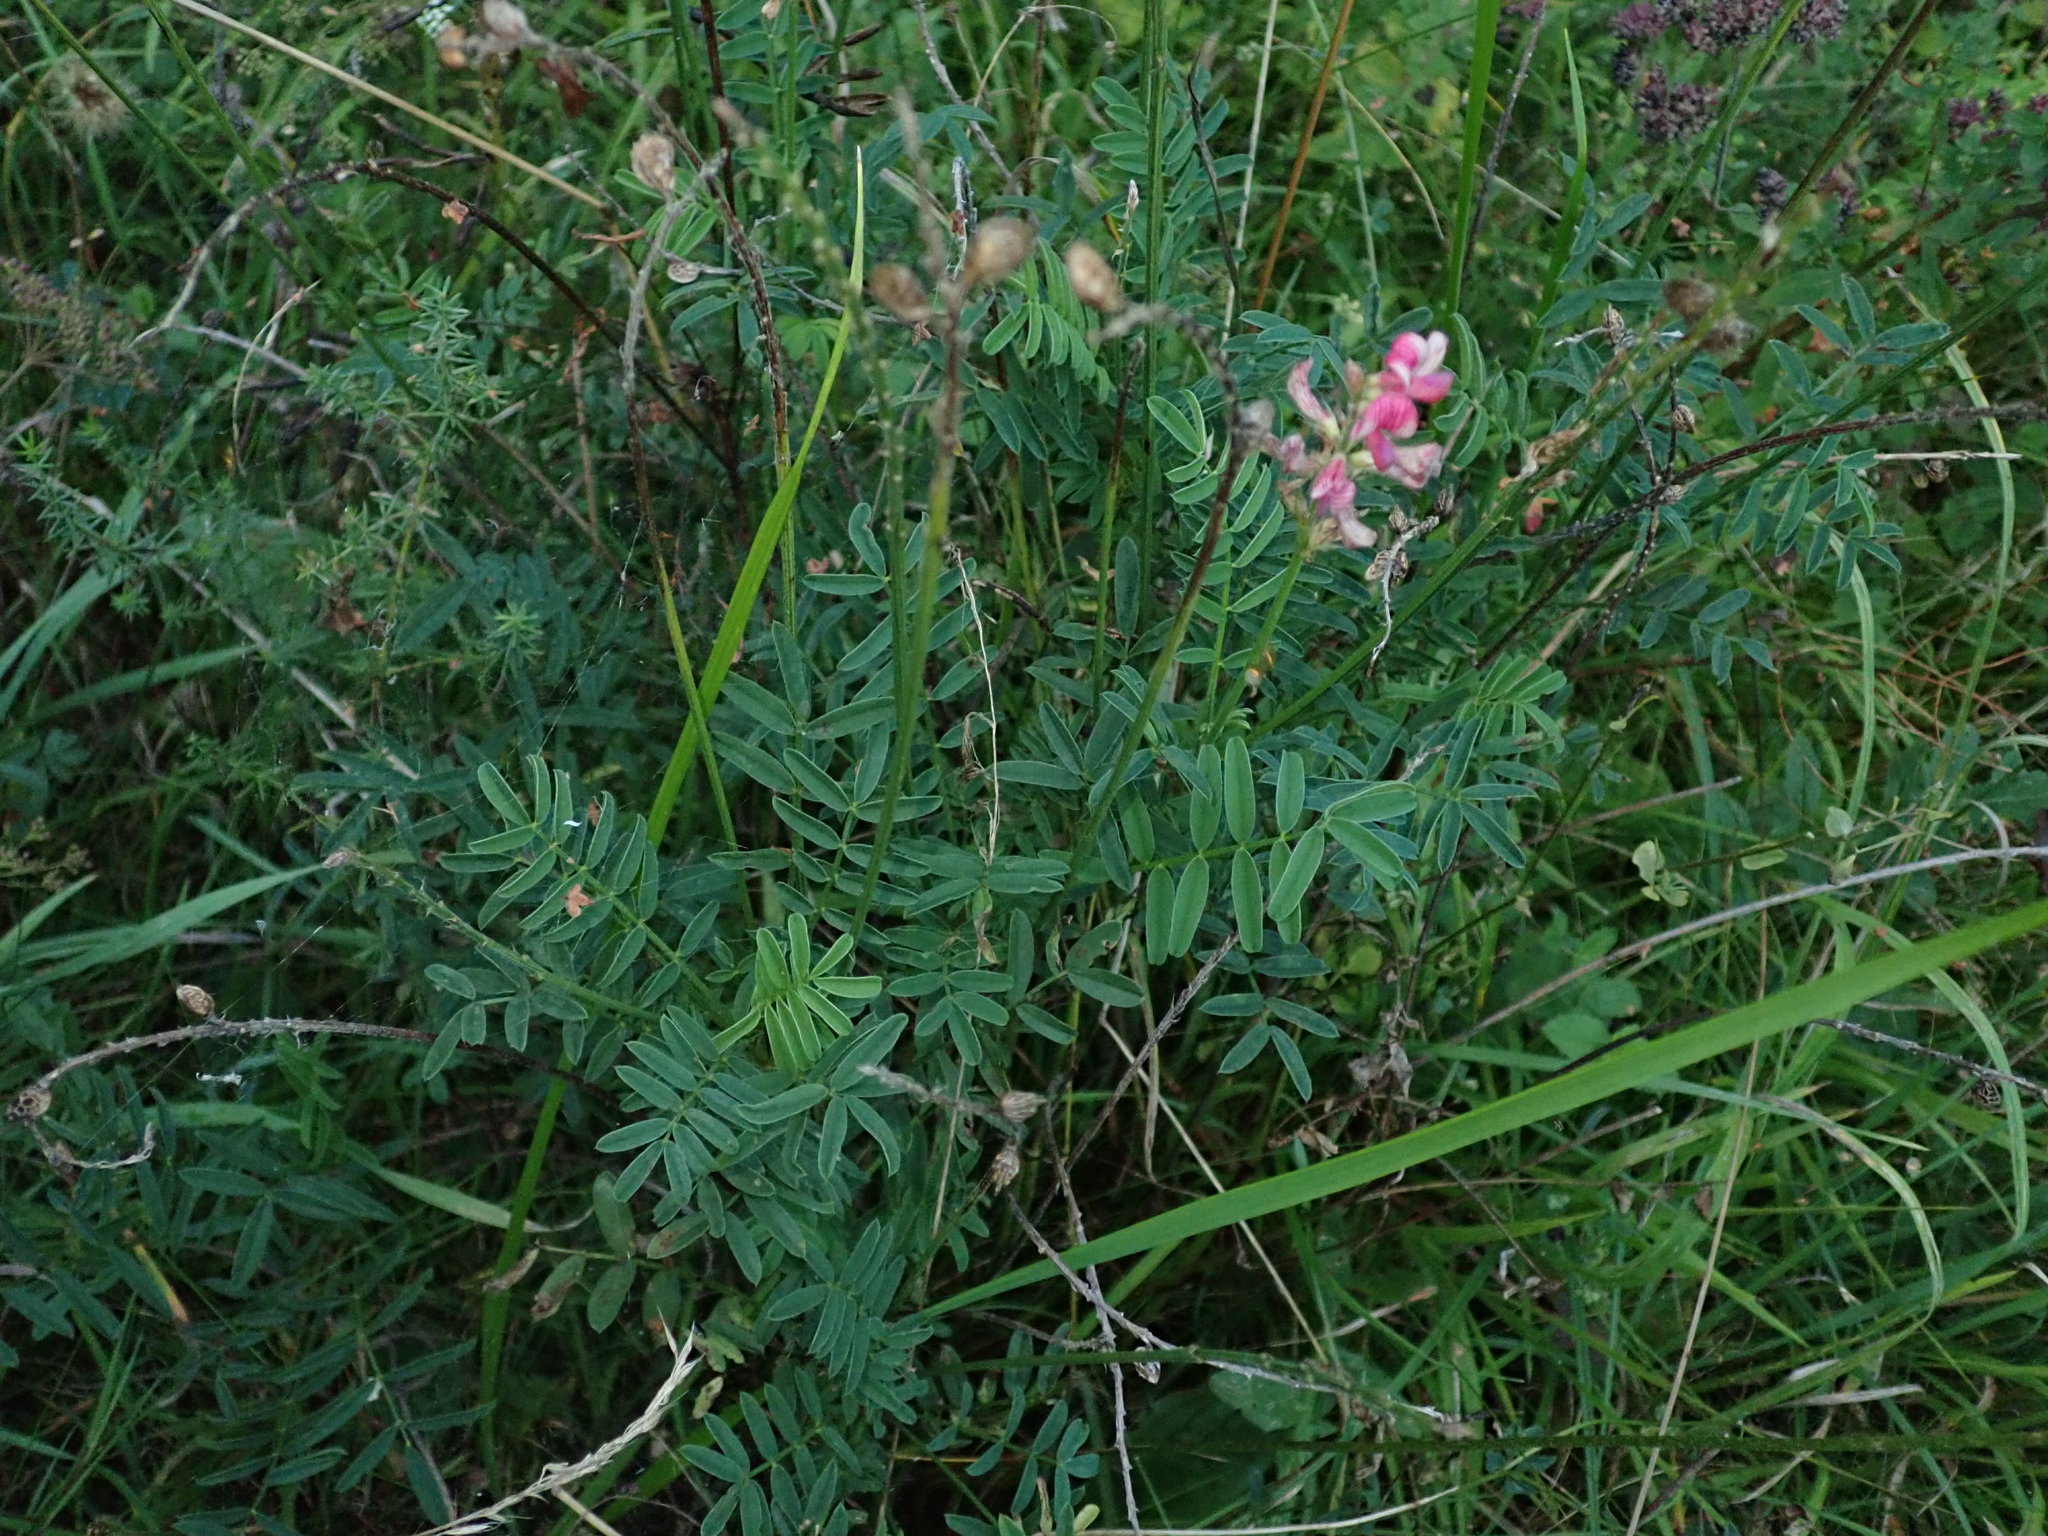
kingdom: Plantae
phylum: Tracheophyta
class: Magnoliopsida
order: Fabales
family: Fabaceae
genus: Onobrychis
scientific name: Onobrychis viciifolia
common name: Sainfoin
